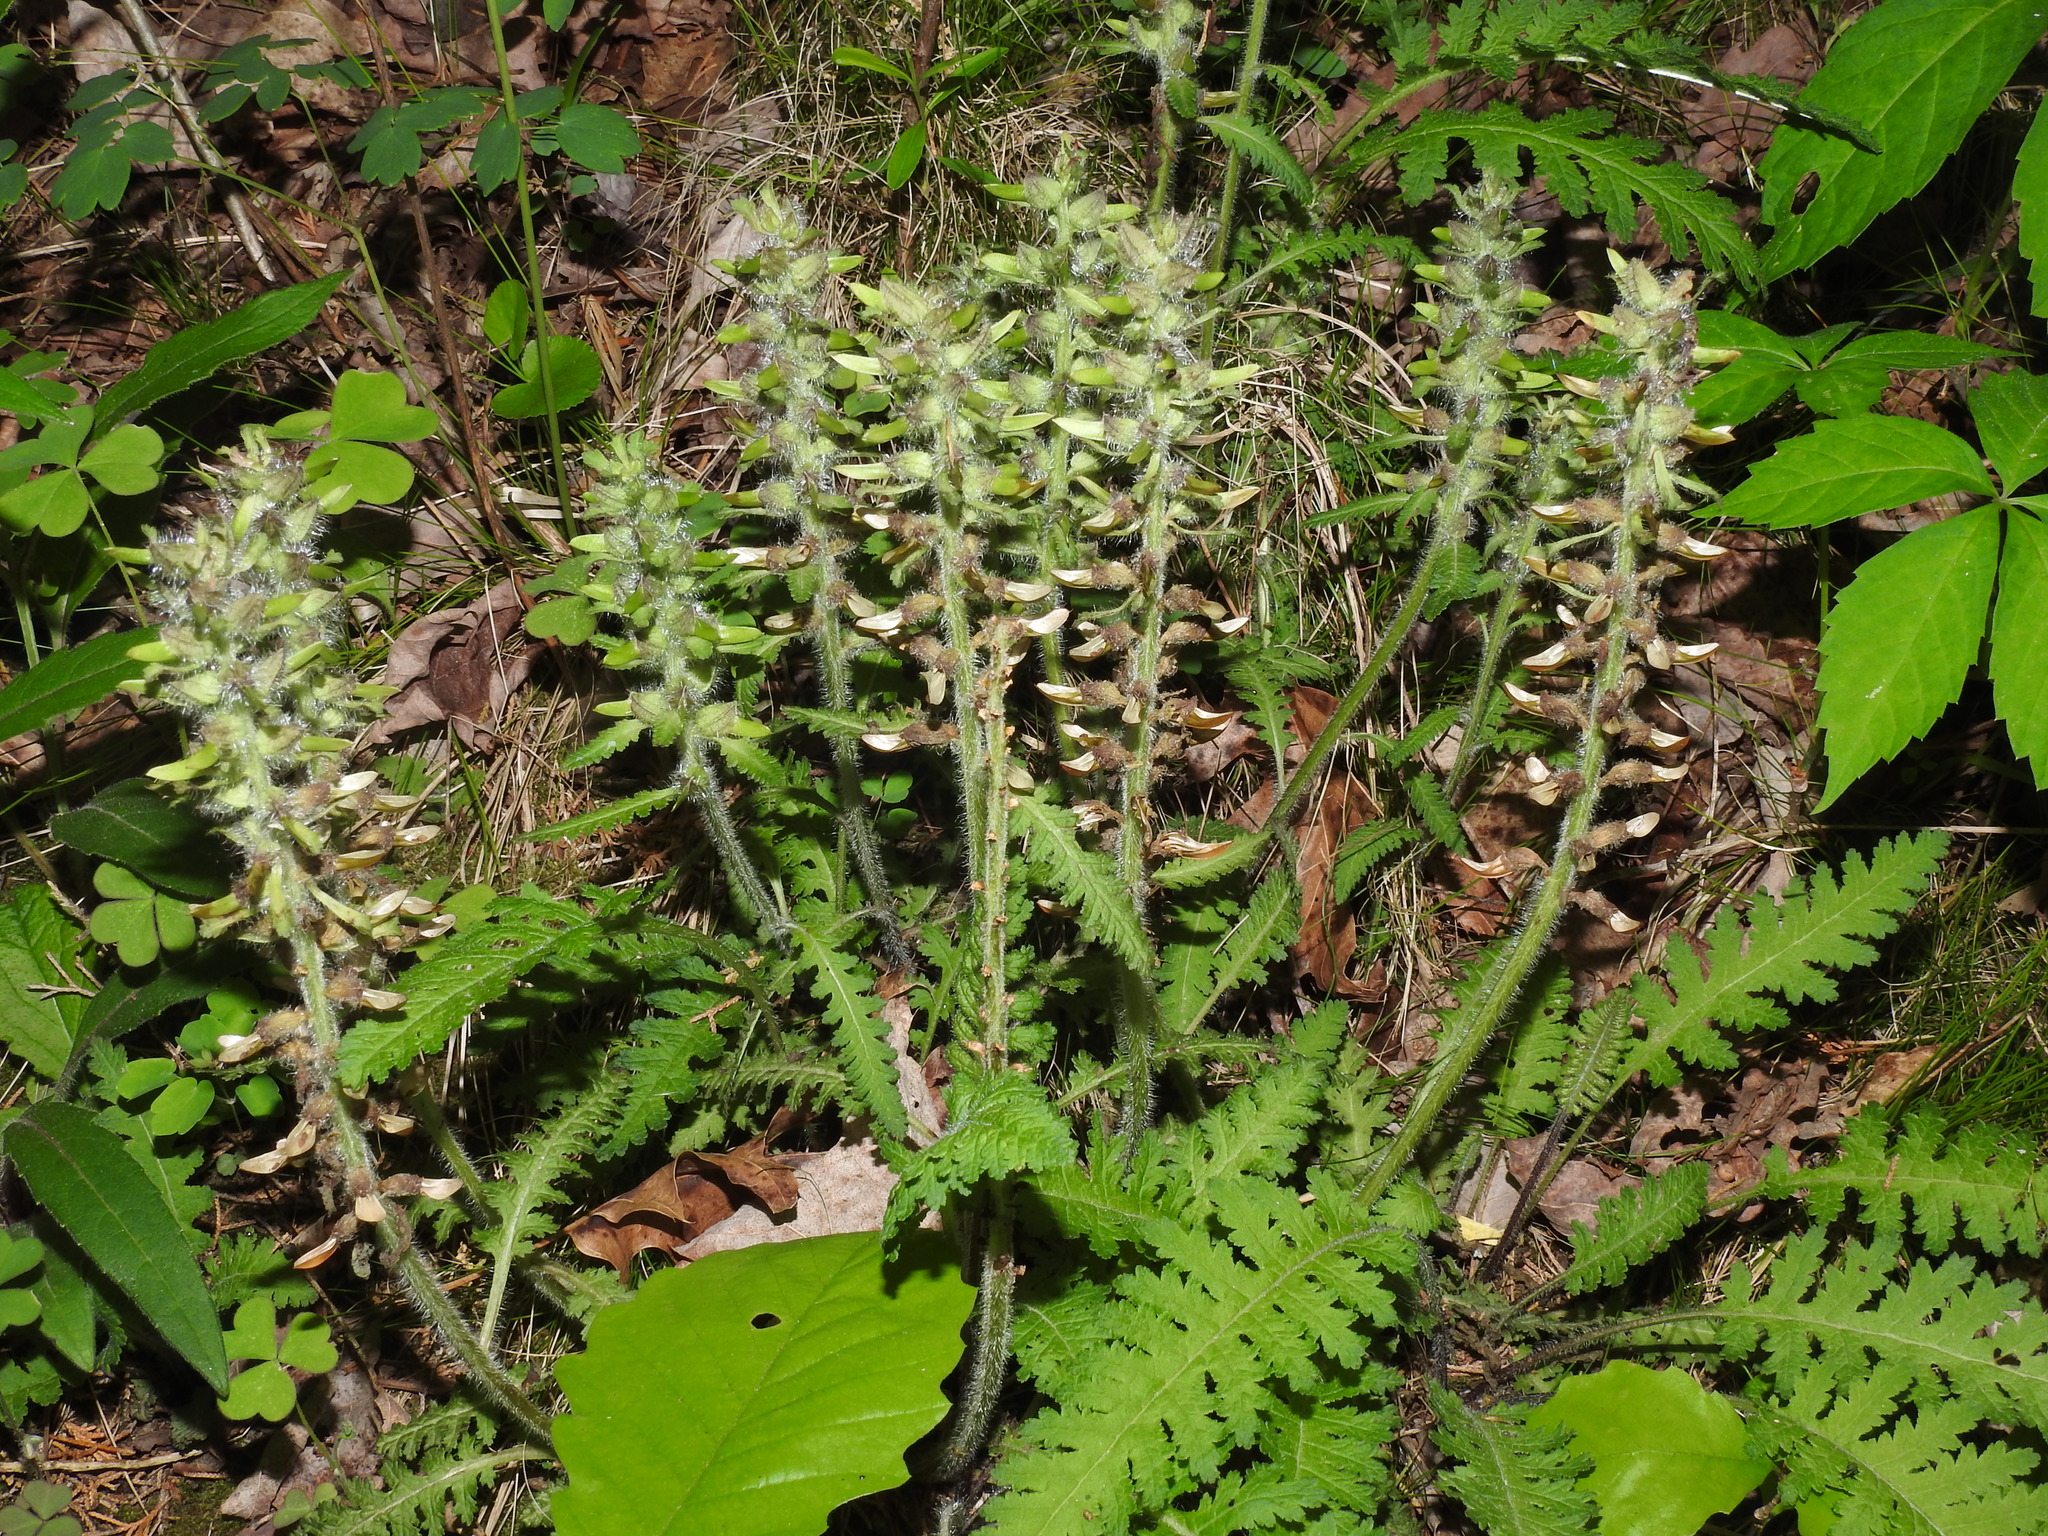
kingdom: Plantae
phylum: Tracheophyta
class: Magnoliopsida
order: Lamiales
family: Orobanchaceae
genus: Pedicularis
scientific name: Pedicularis canadensis
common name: Early lousewort
